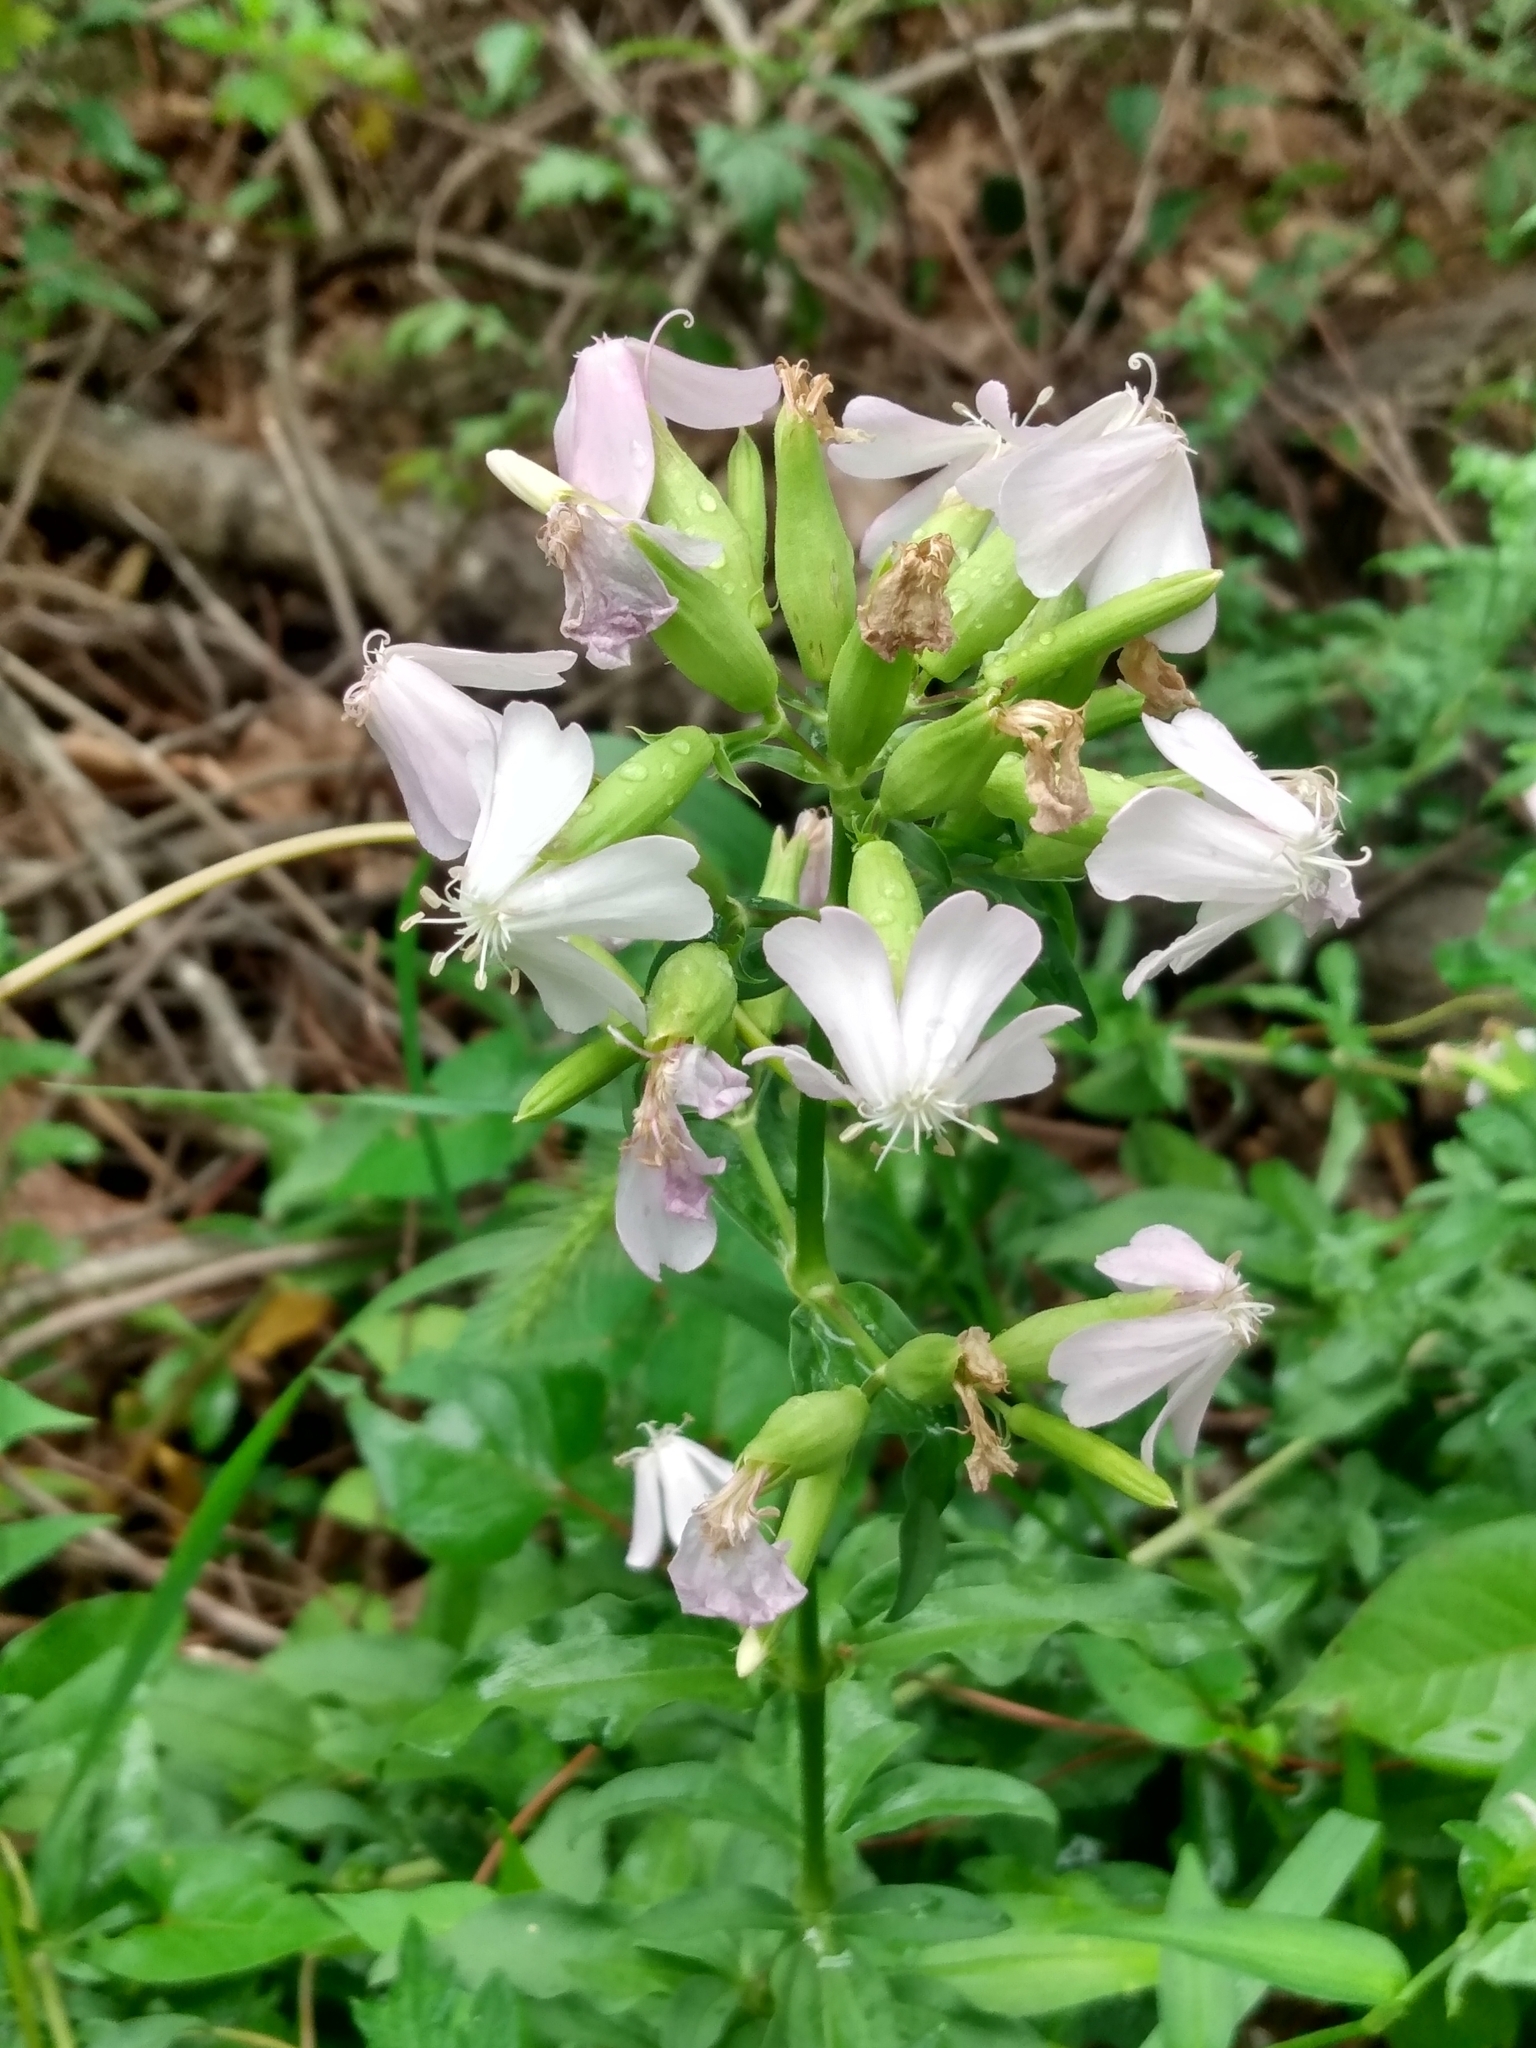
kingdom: Plantae
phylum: Tracheophyta
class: Magnoliopsida
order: Caryophyllales
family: Caryophyllaceae
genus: Saponaria
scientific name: Saponaria officinalis
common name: Soapwort
